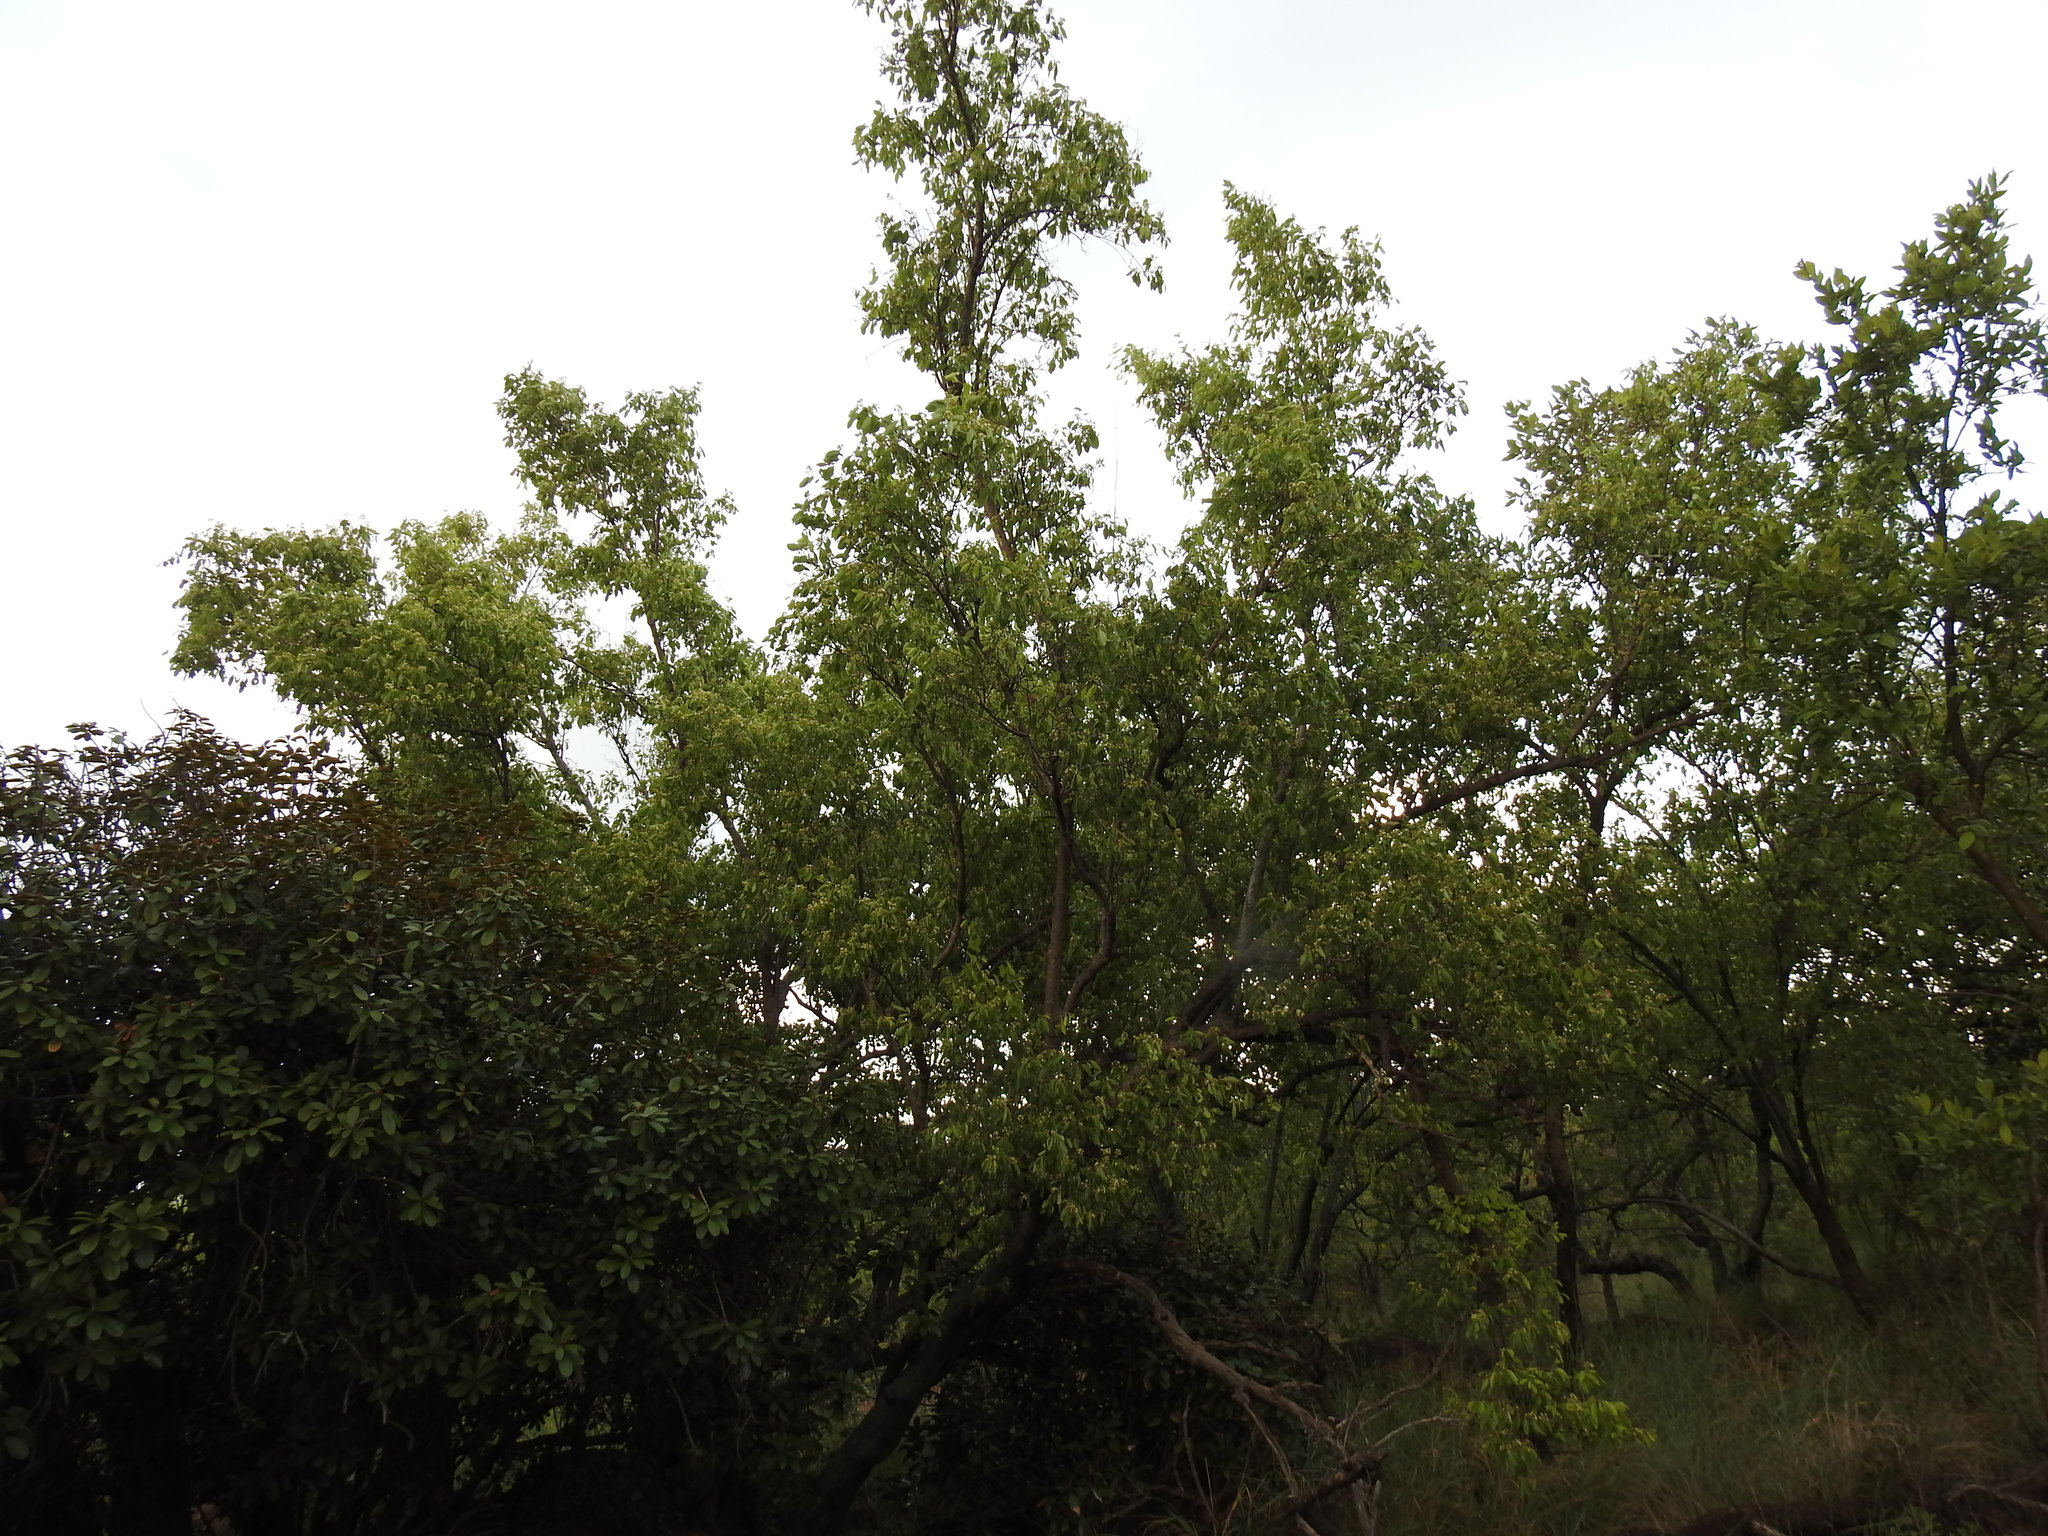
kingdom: Plantae
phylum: Tracheophyta
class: Magnoliopsida
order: Gentianales
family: Apocynaceae
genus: Diplorhynchus
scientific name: Diplorhynchus condylocarpon
